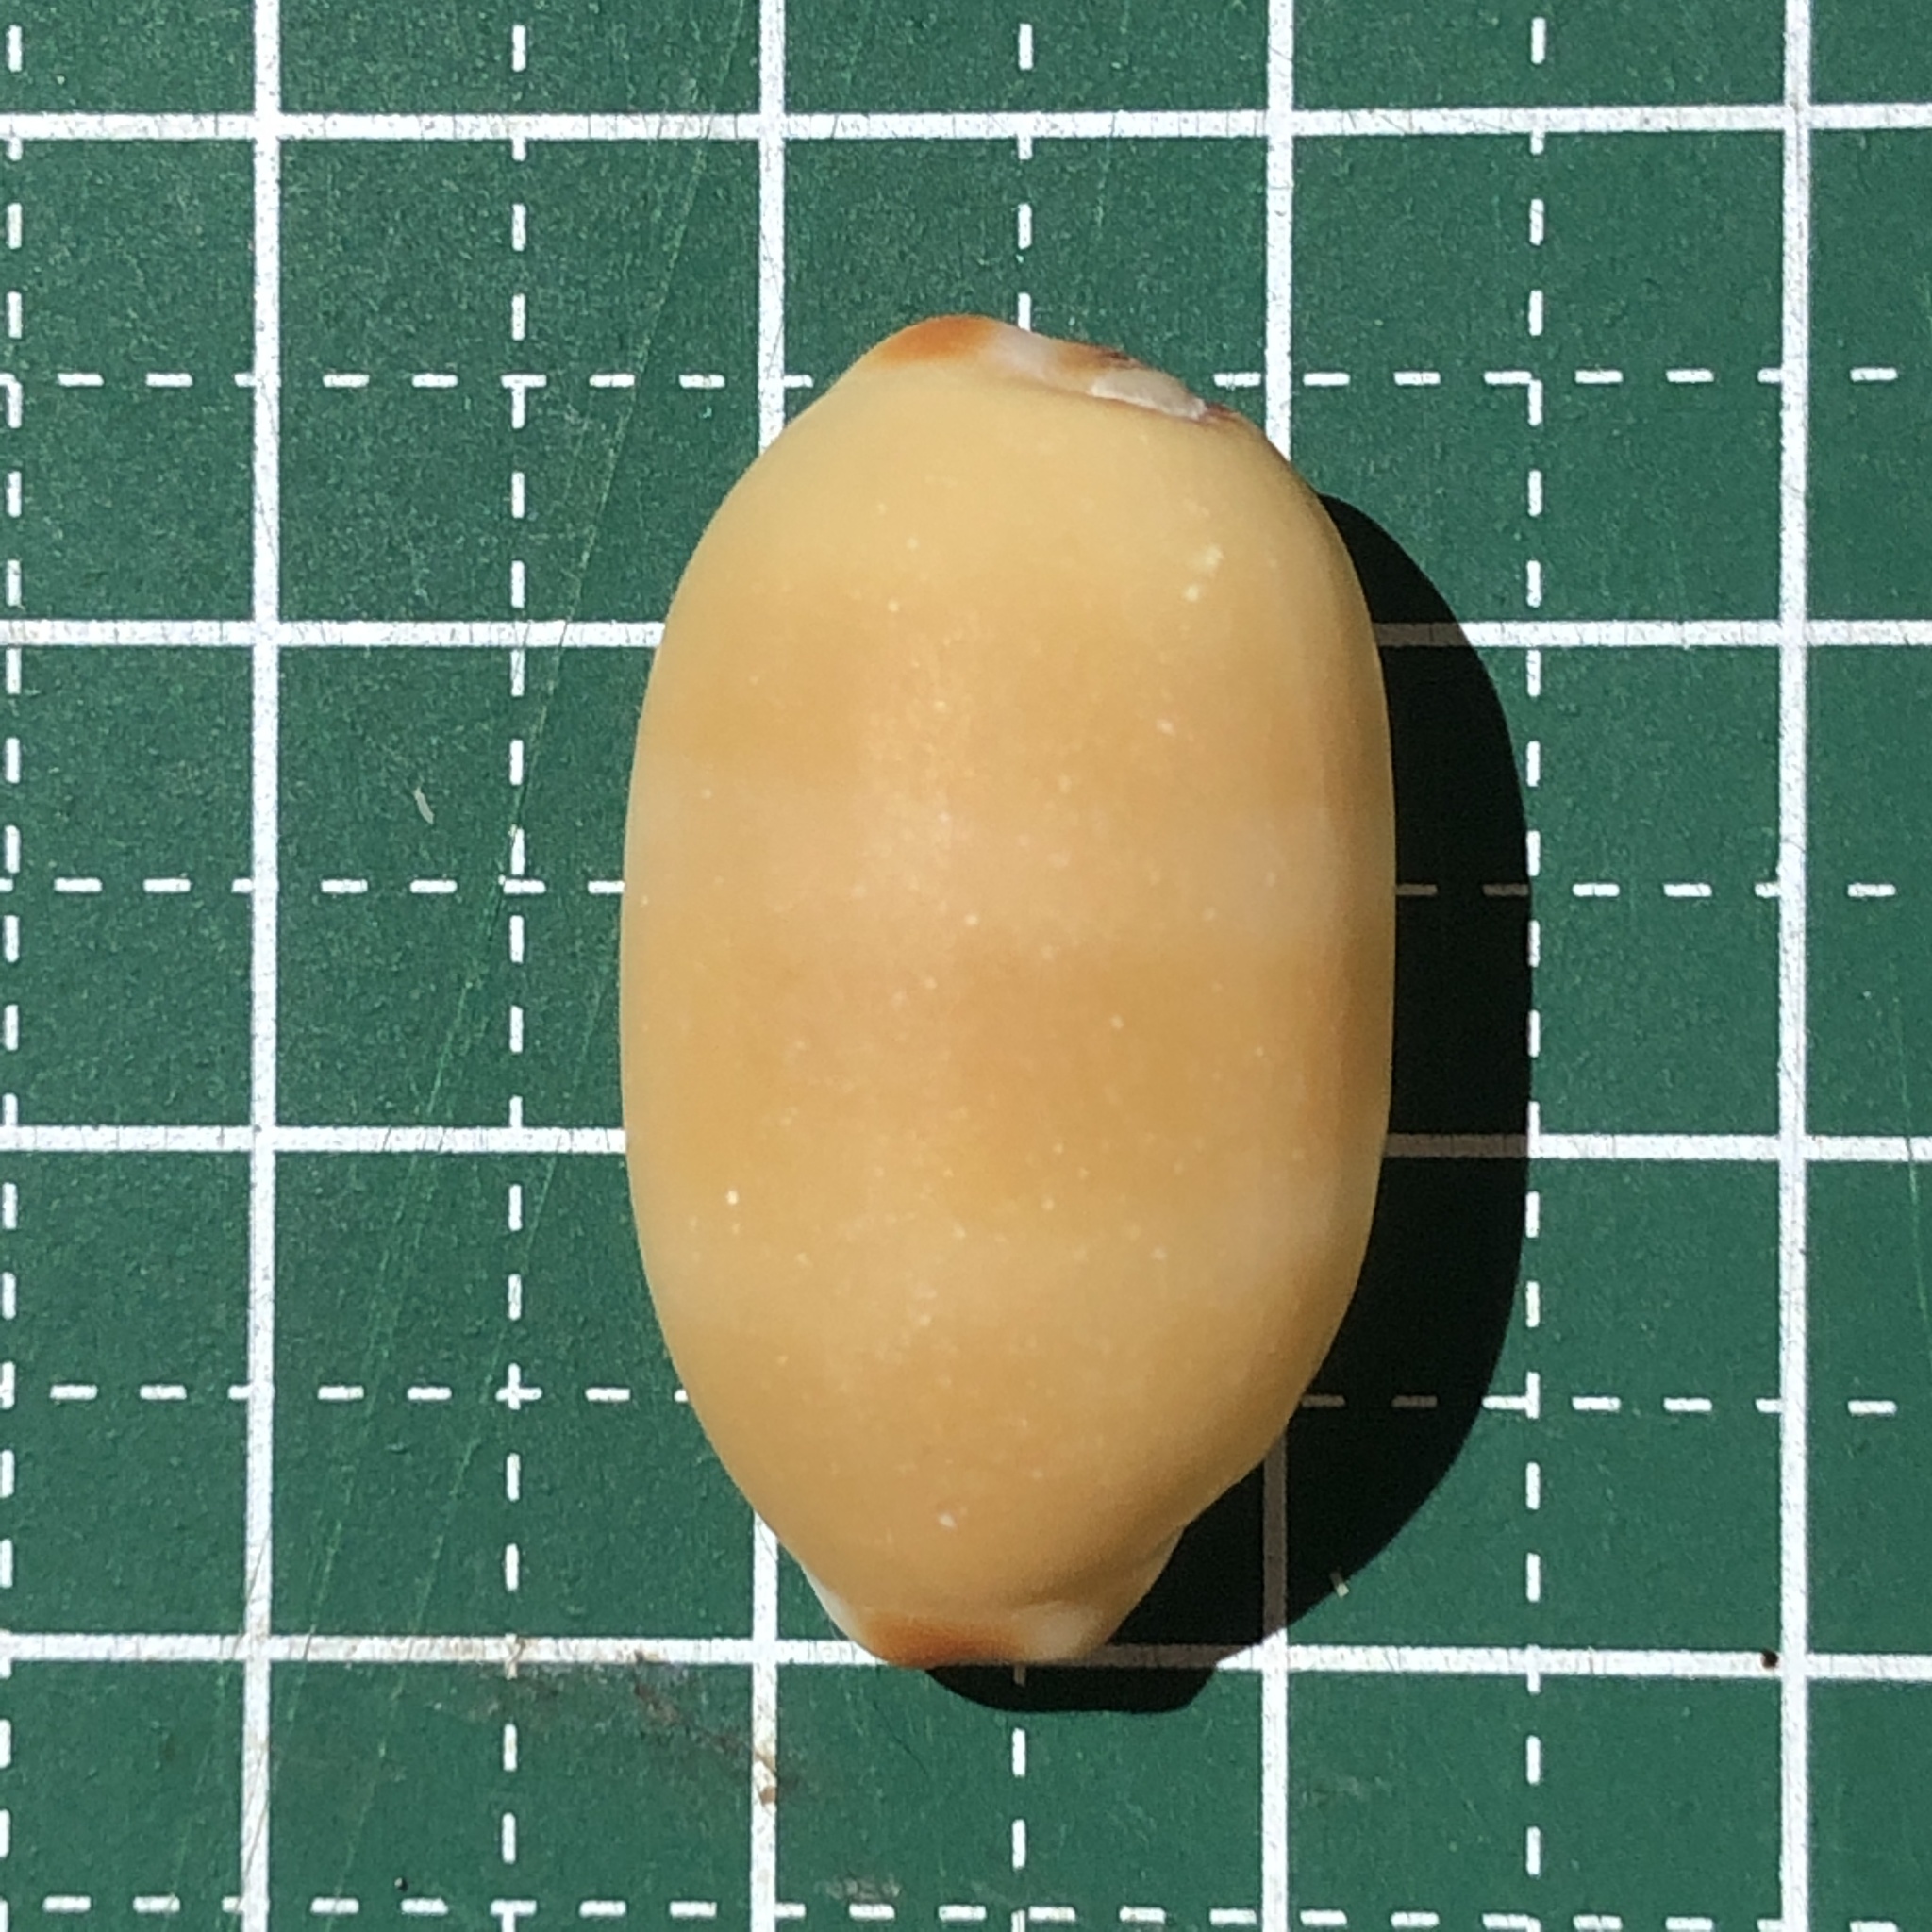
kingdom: Animalia
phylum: Mollusca
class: Gastropoda
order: Littorinimorpha
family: Cypraeidae
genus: Luria
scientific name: Luria isabella
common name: Isabell cowry
